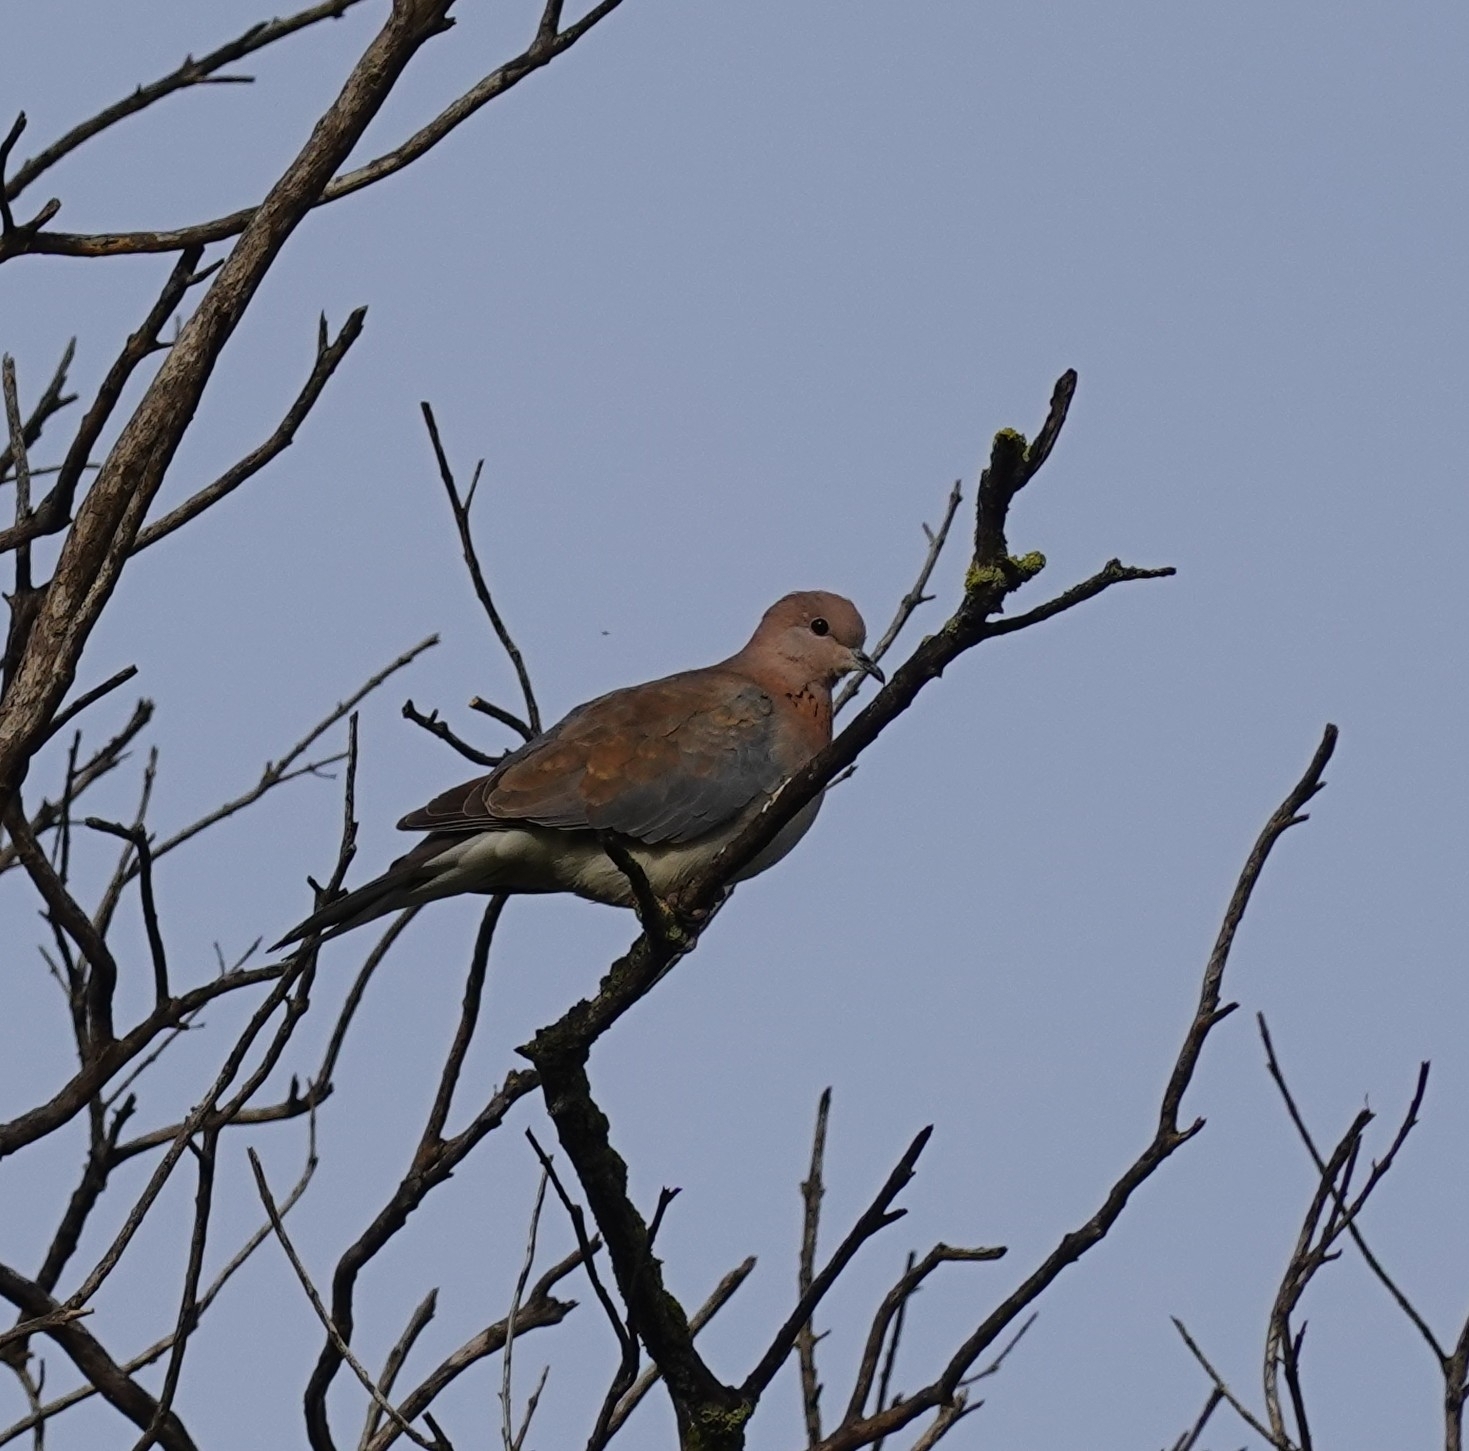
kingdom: Animalia
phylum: Chordata
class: Aves
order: Columbiformes
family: Columbidae
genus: Spilopelia
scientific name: Spilopelia senegalensis
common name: Laughing dove
